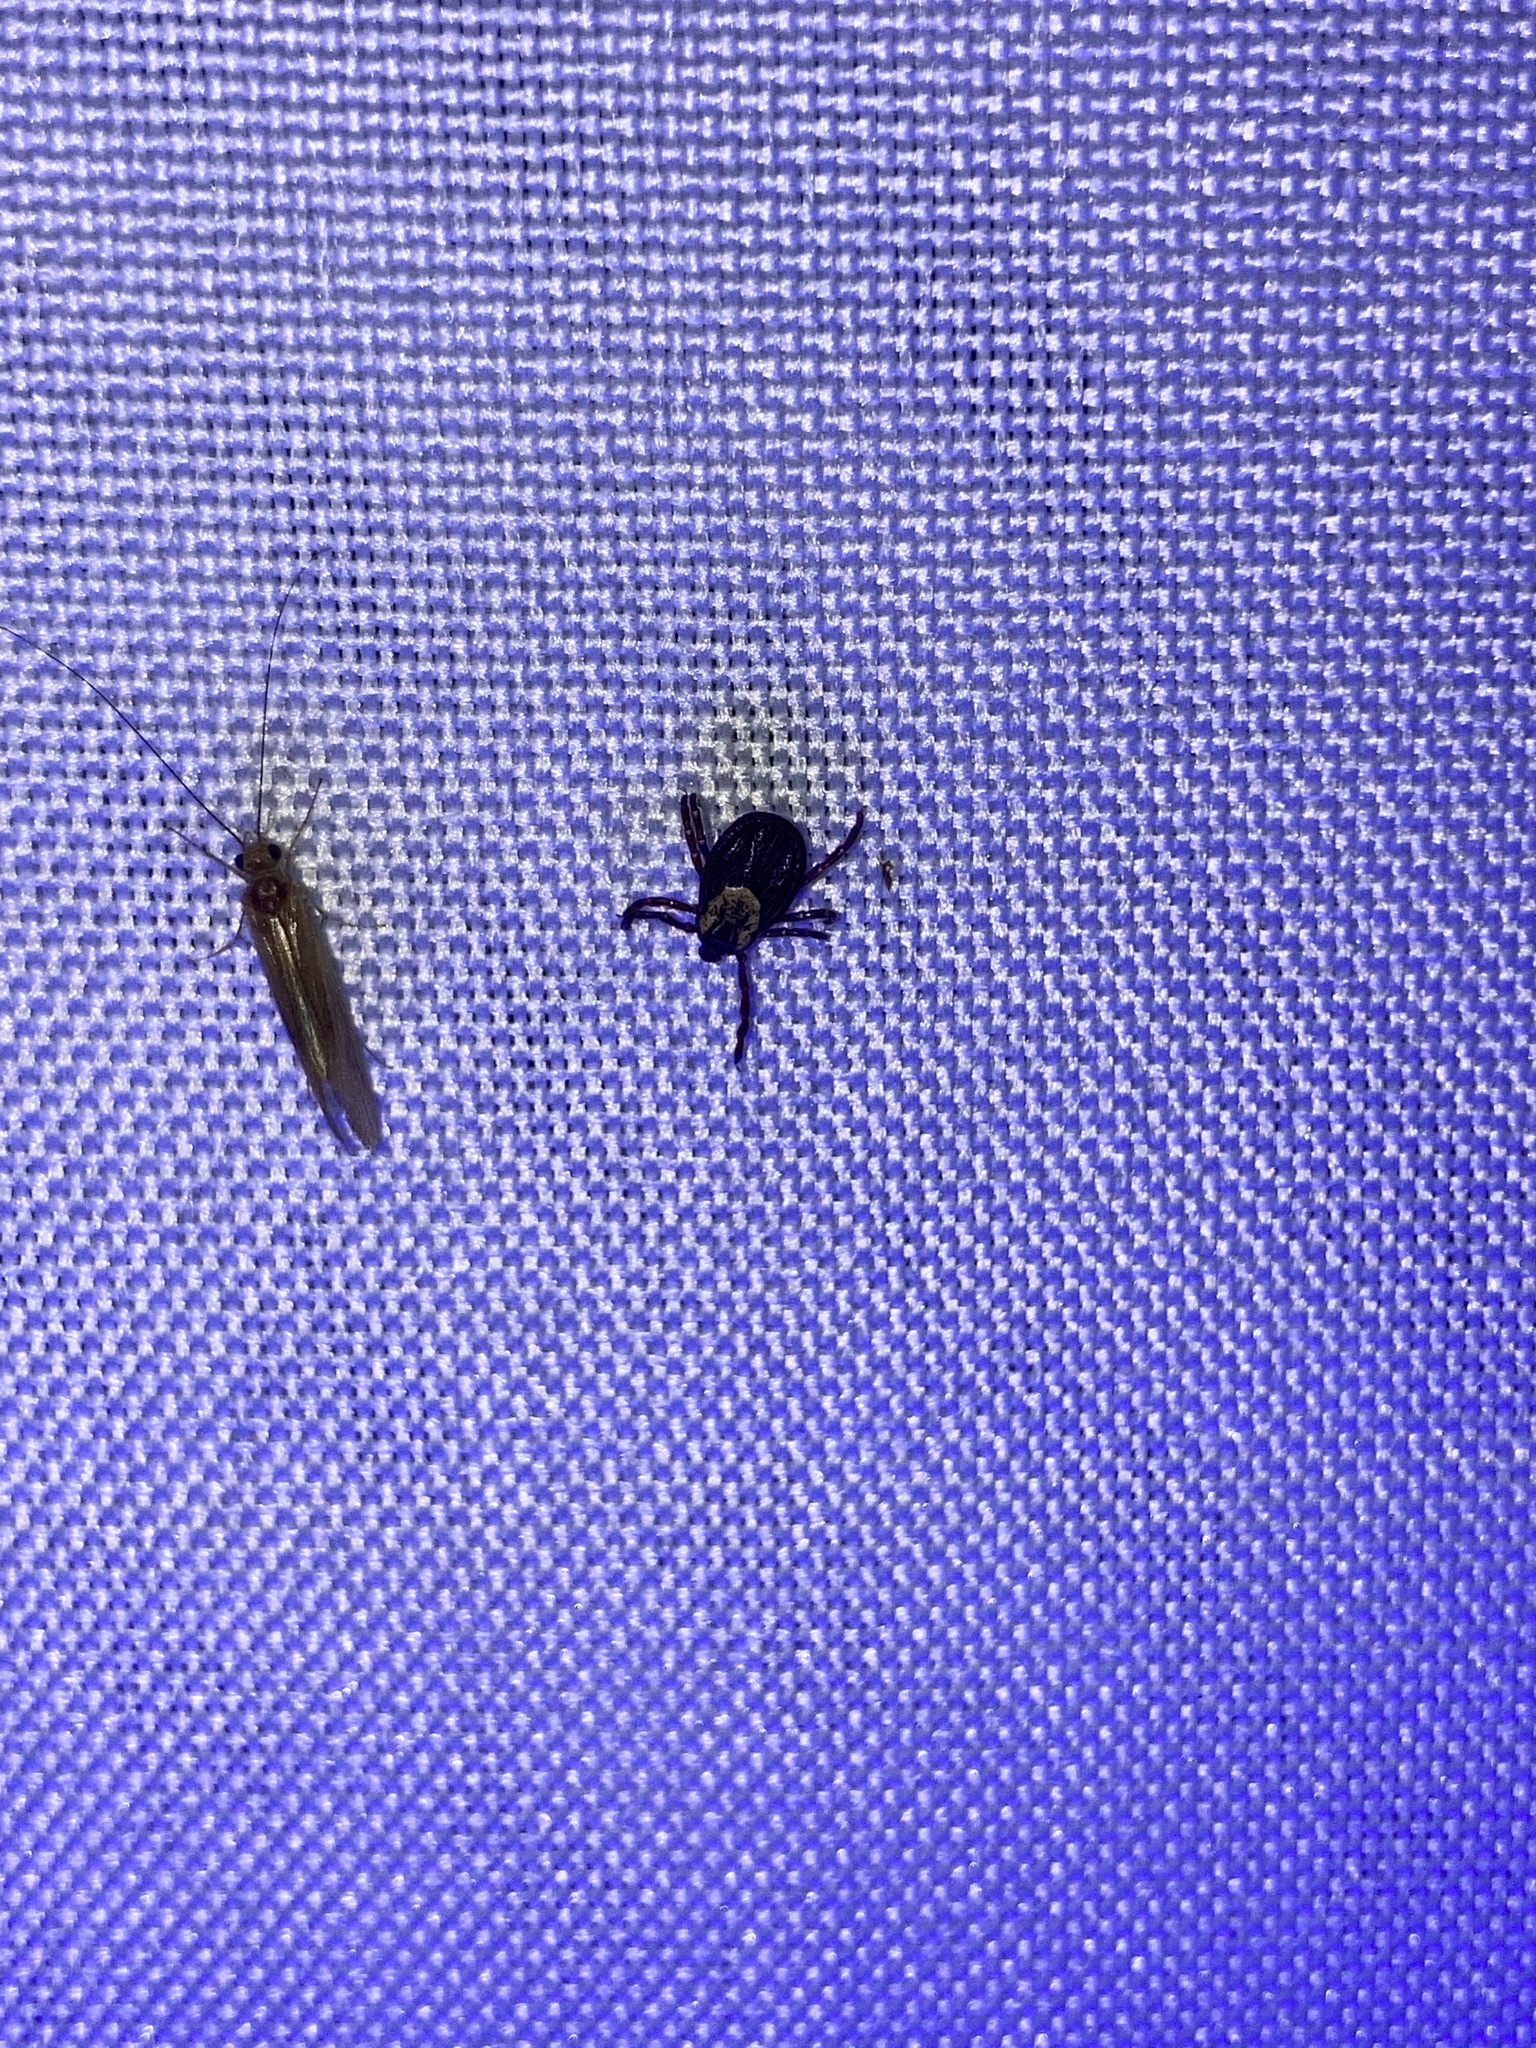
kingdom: Animalia
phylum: Arthropoda
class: Arachnida
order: Ixodida
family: Ixodidae
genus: Dermacentor
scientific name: Dermacentor variabilis
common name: American dog tick
